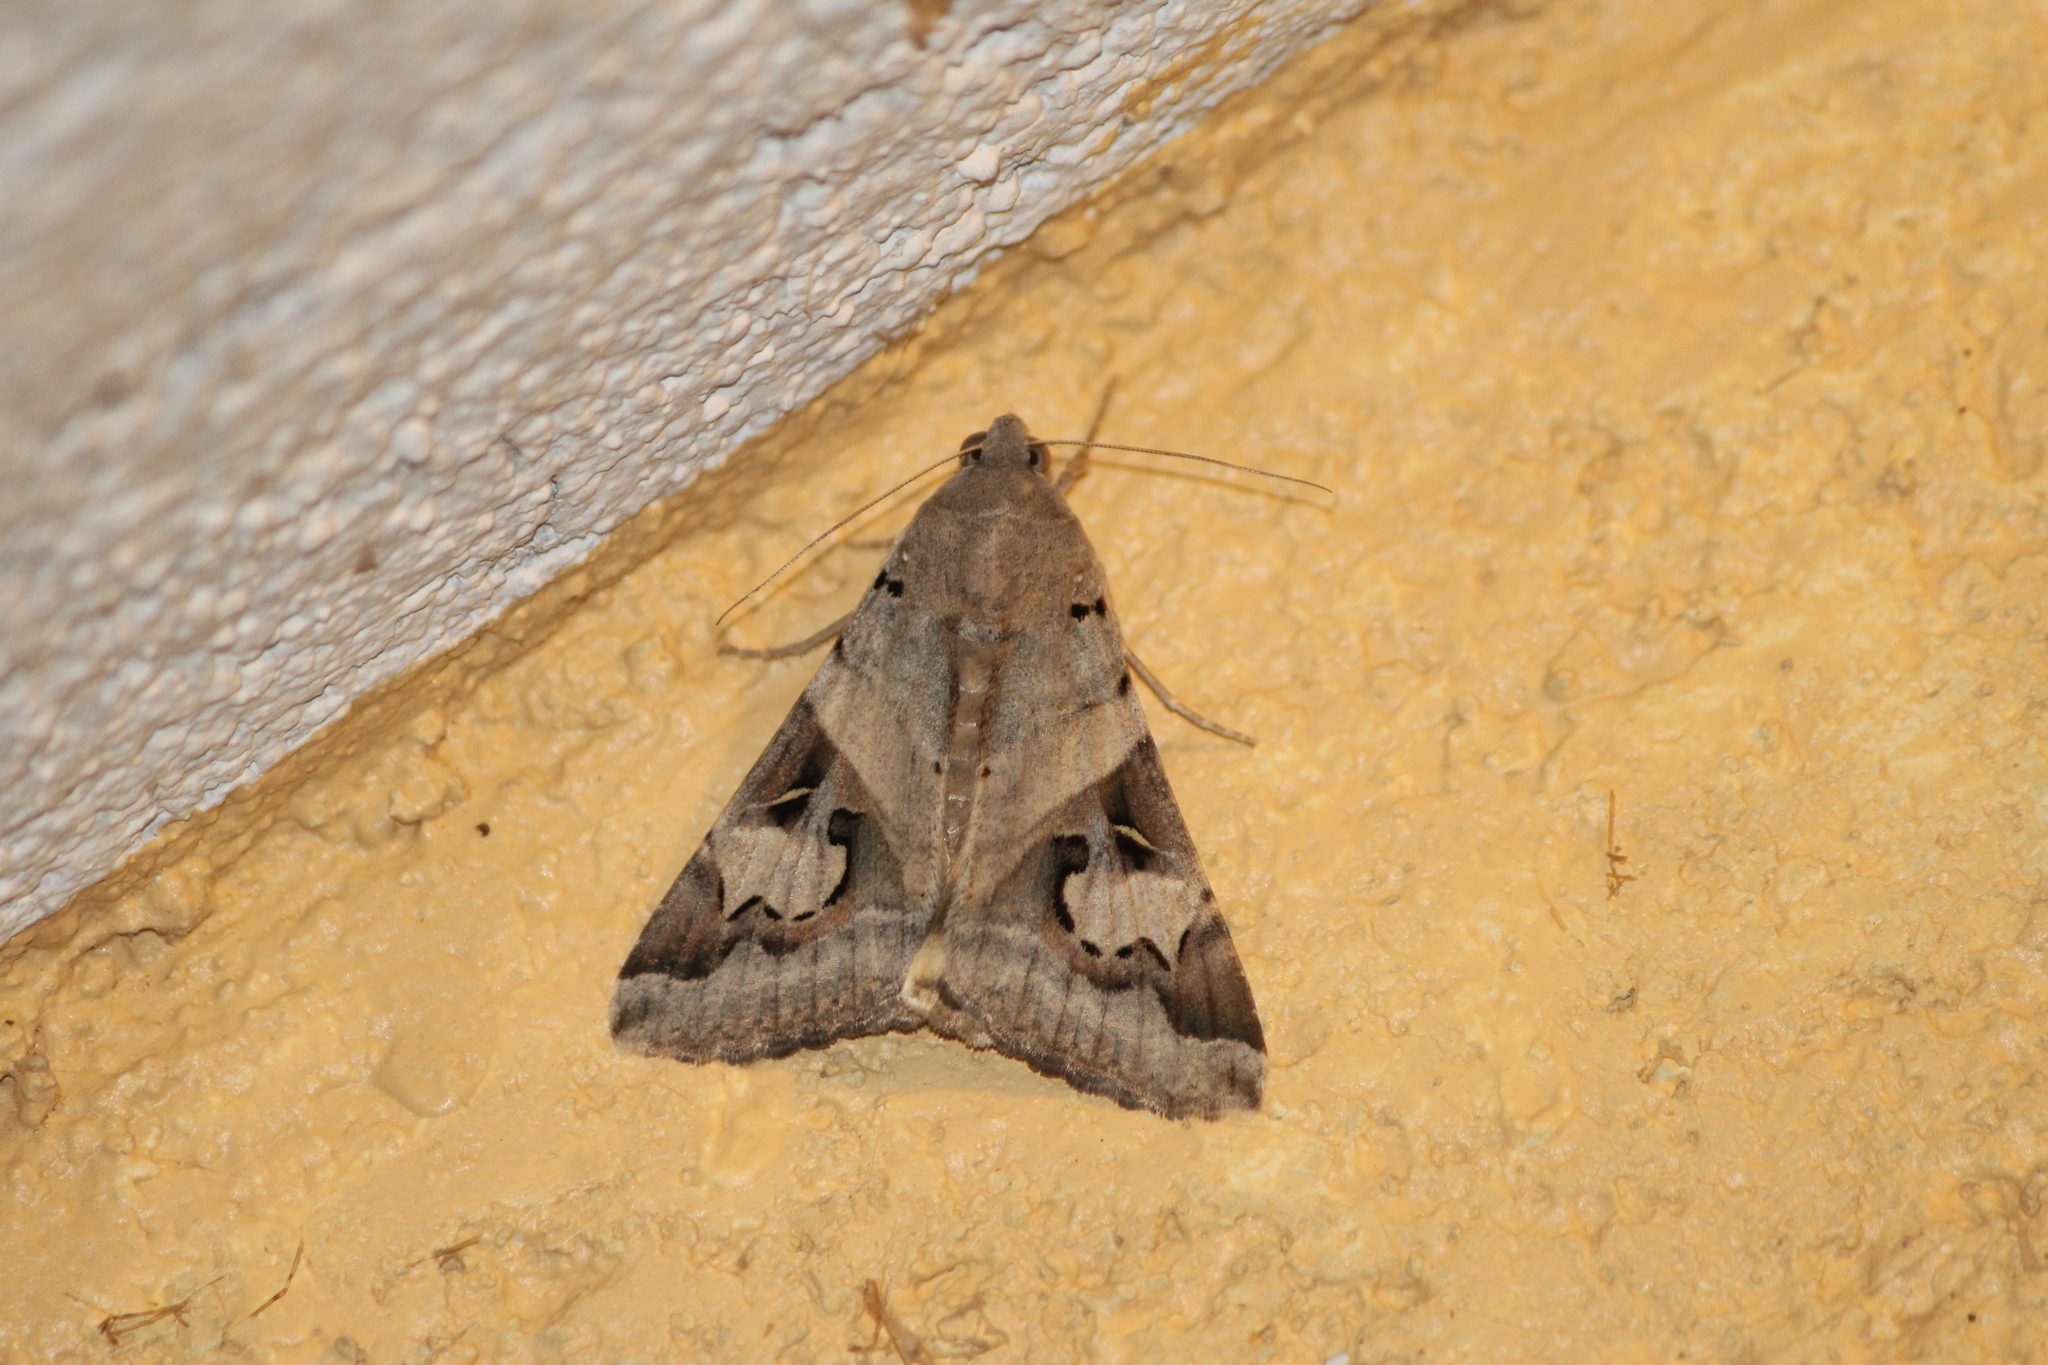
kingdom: Animalia
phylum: Arthropoda
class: Insecta
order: Lepidoptera
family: Erebidae
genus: Melipotis
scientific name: Melipotis indomita
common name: Moth
